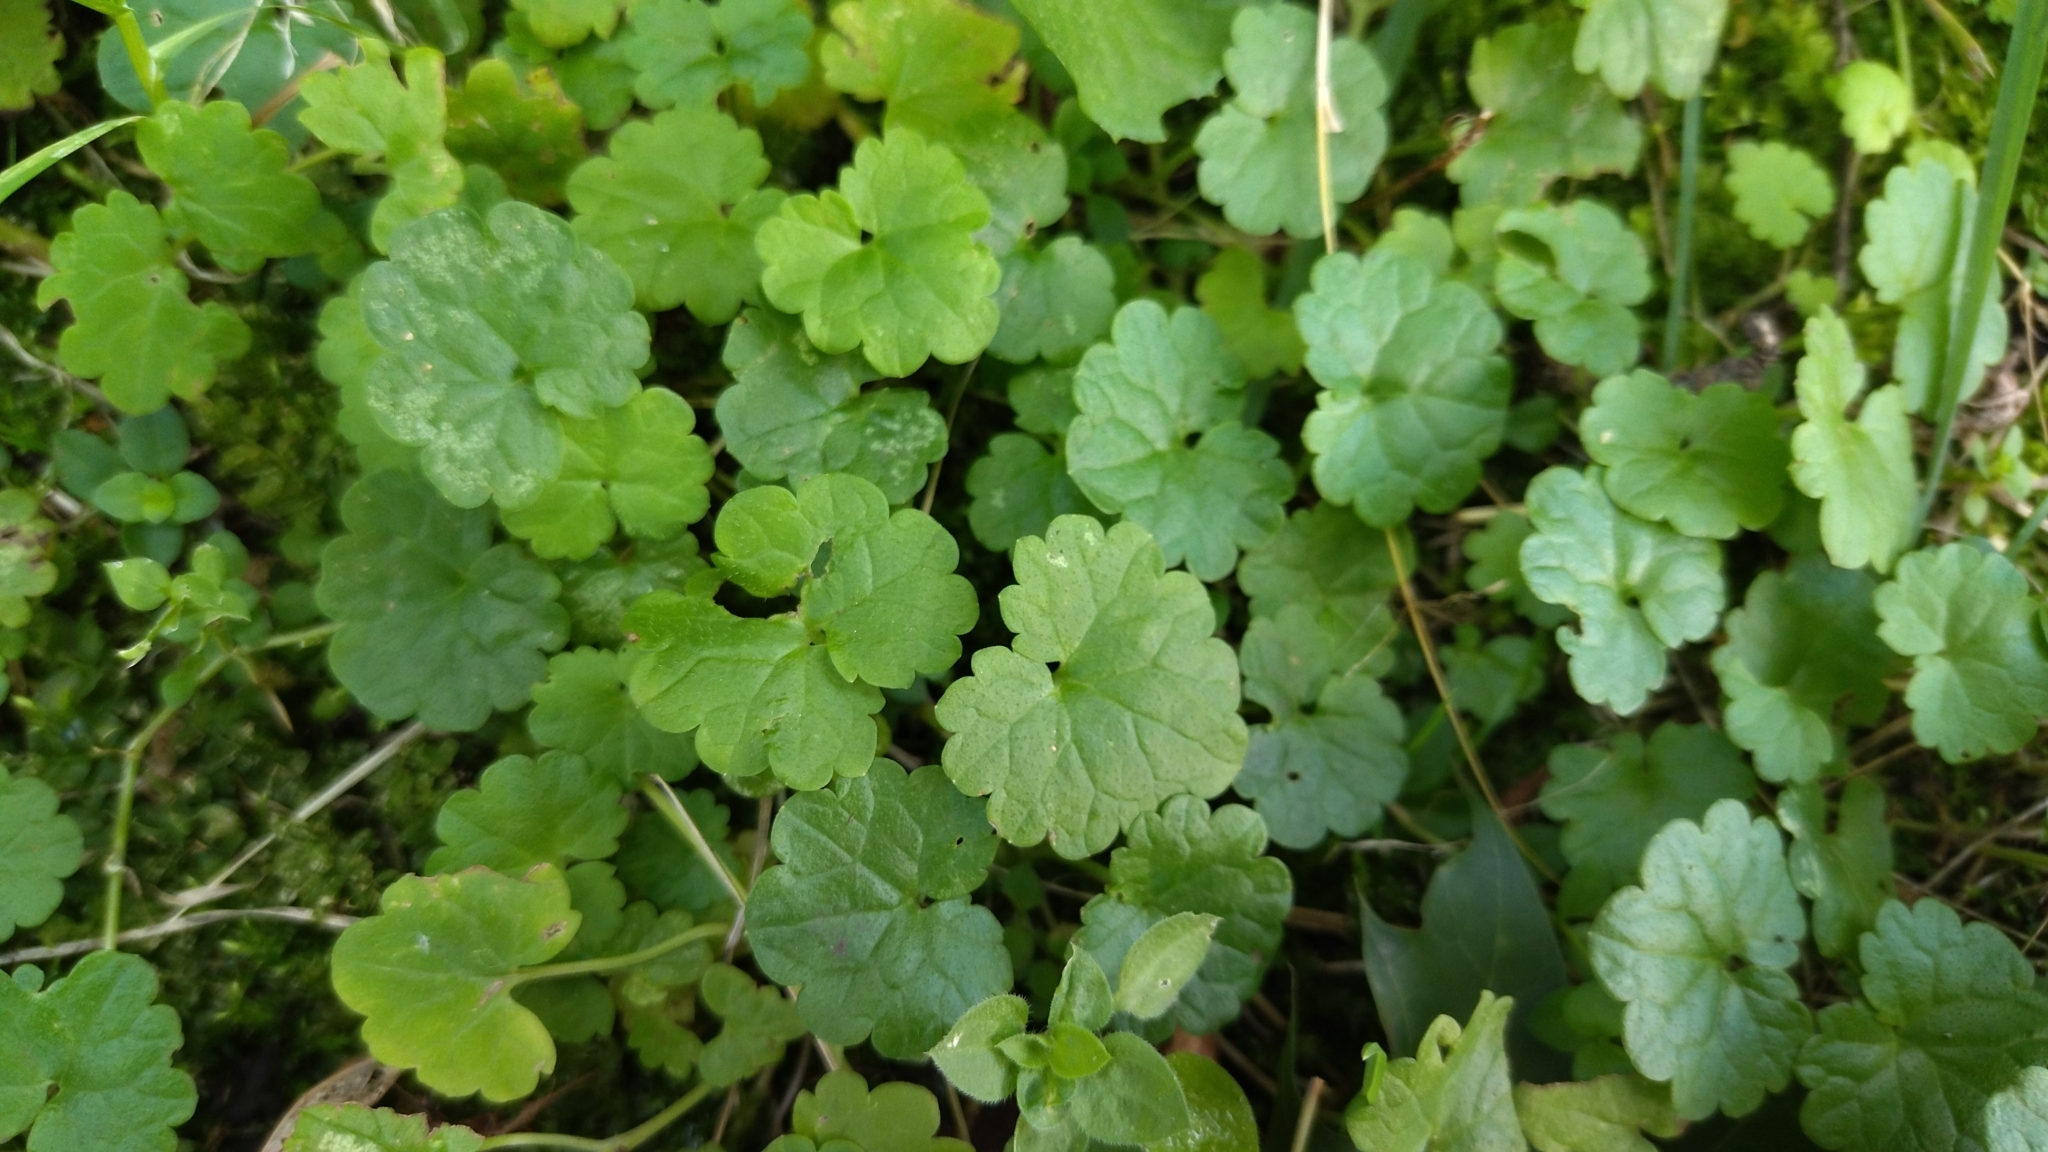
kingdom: Plantae
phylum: Tracheophyta
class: Magnoliopsida
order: Lamiales
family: Lamiaceae
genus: Glechoma
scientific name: Glechoma hederacea
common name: Ground ivy
